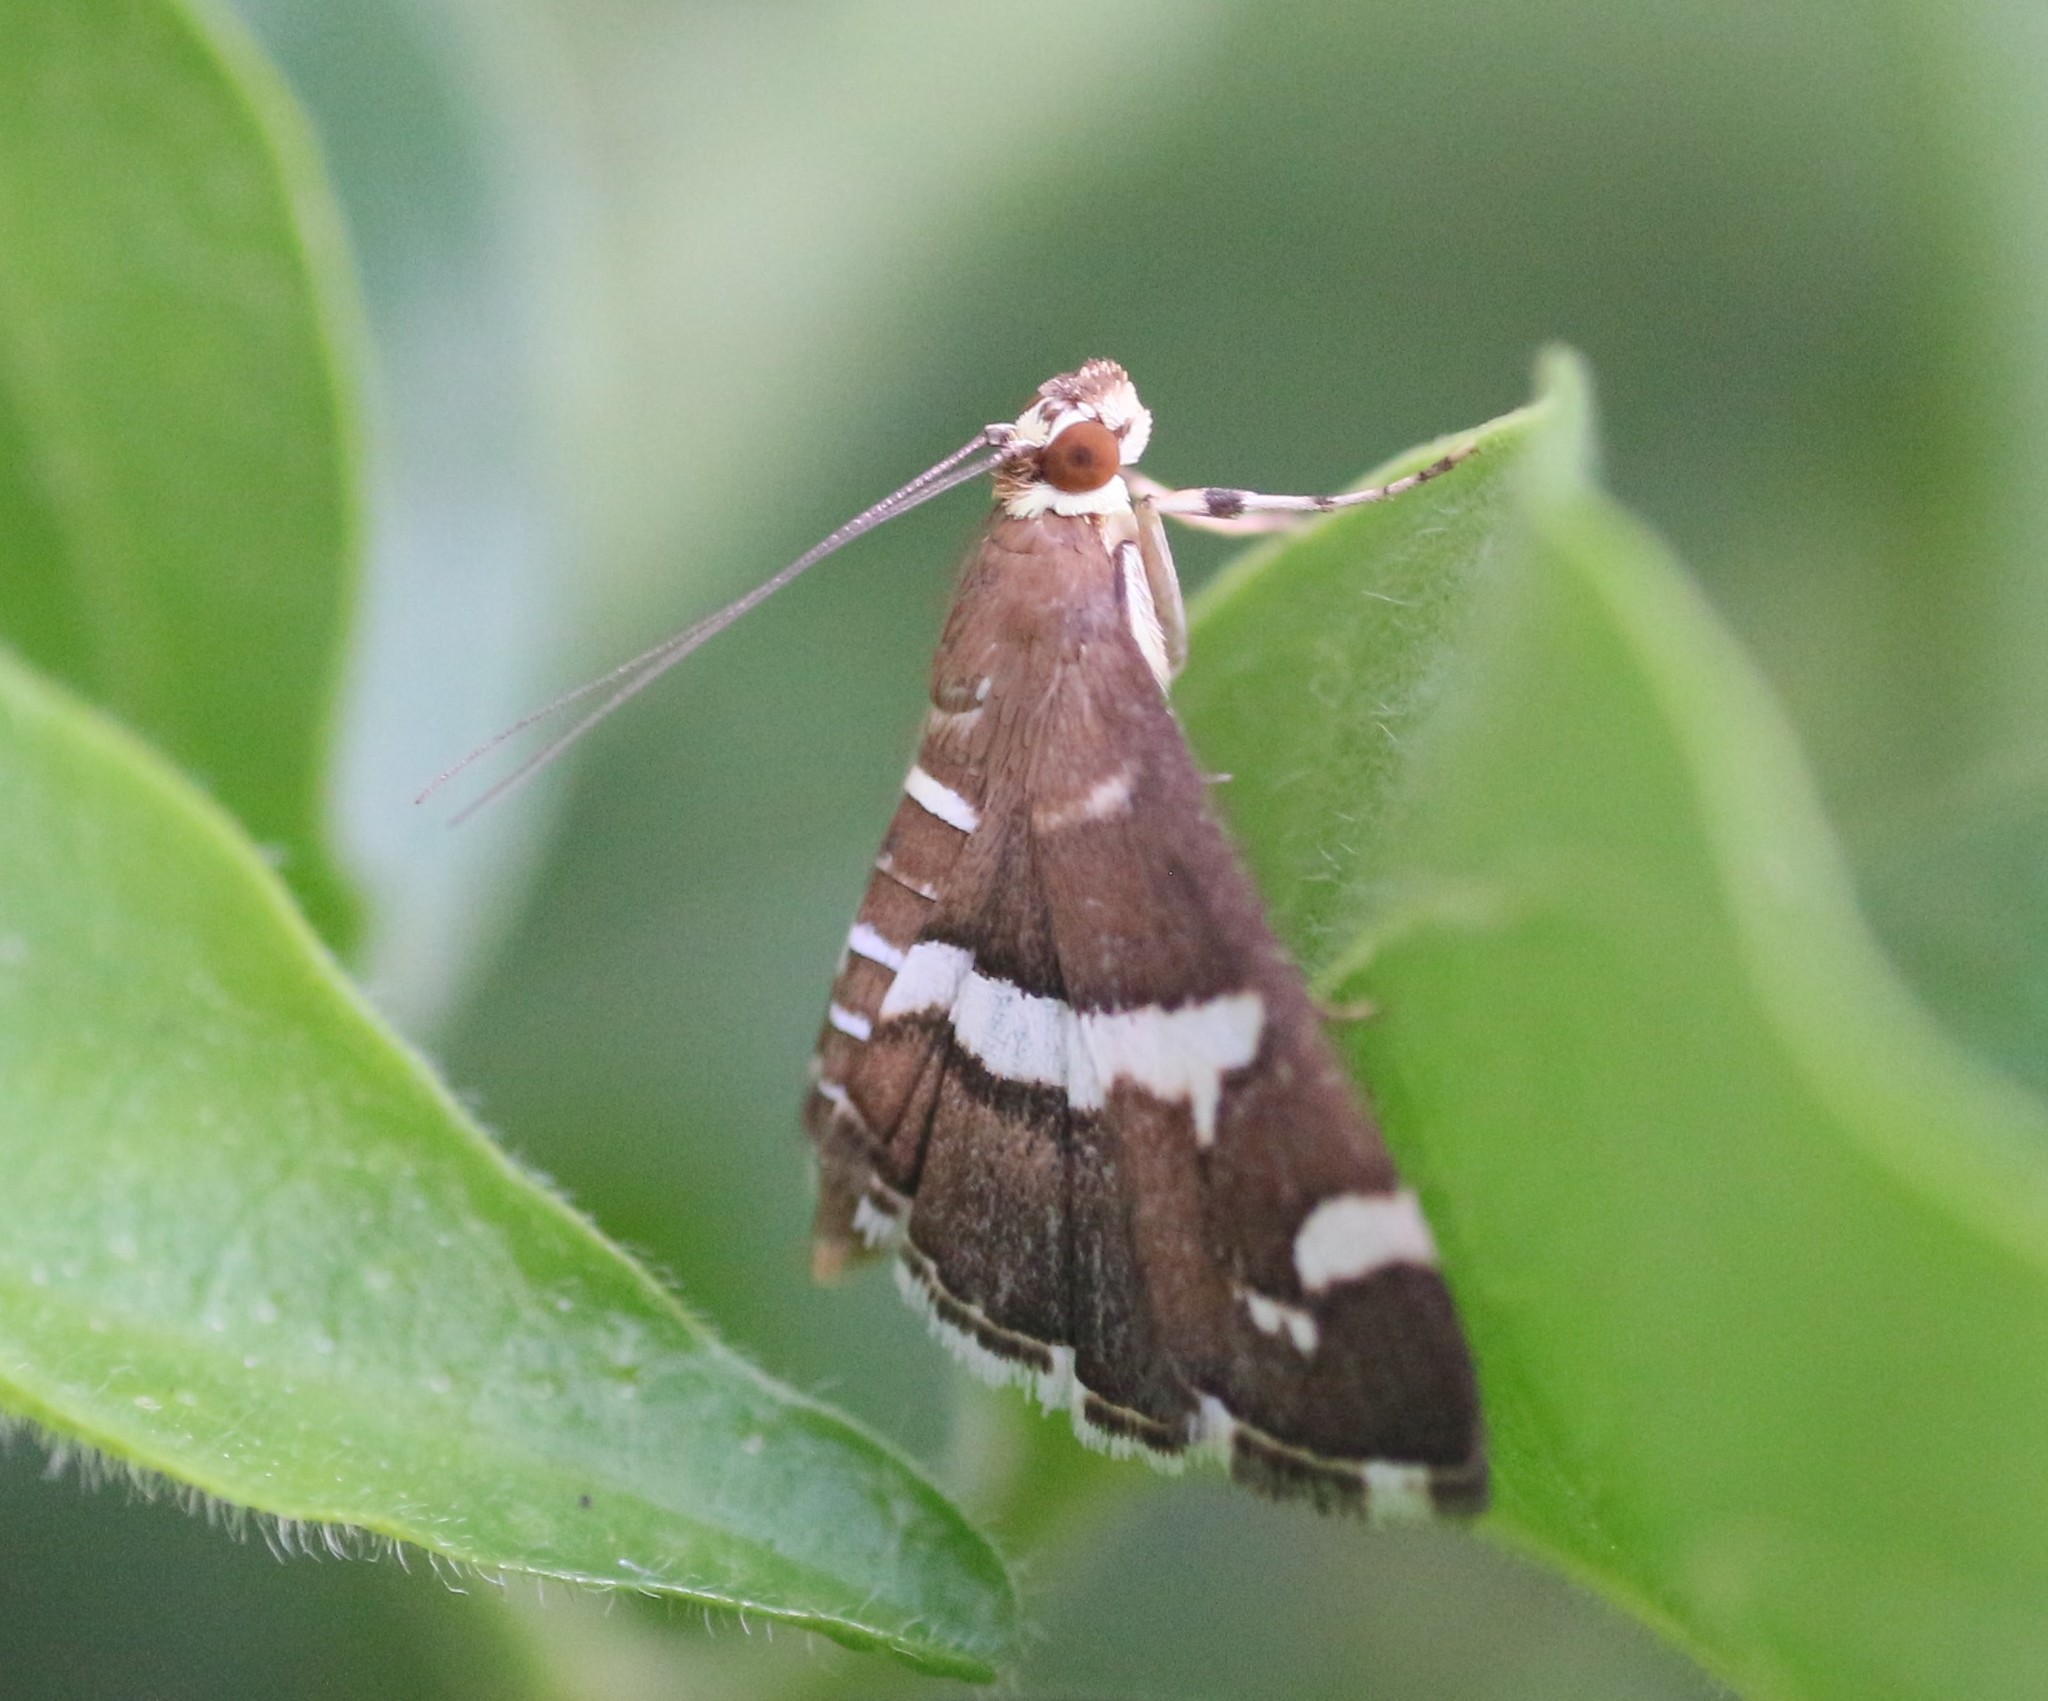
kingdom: Animalia
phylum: Arthropoda
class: Insecta
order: Lepidoptera
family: Crambidae
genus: Spoladea
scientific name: Spoladea recurvalis
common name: Beet webworm moth
